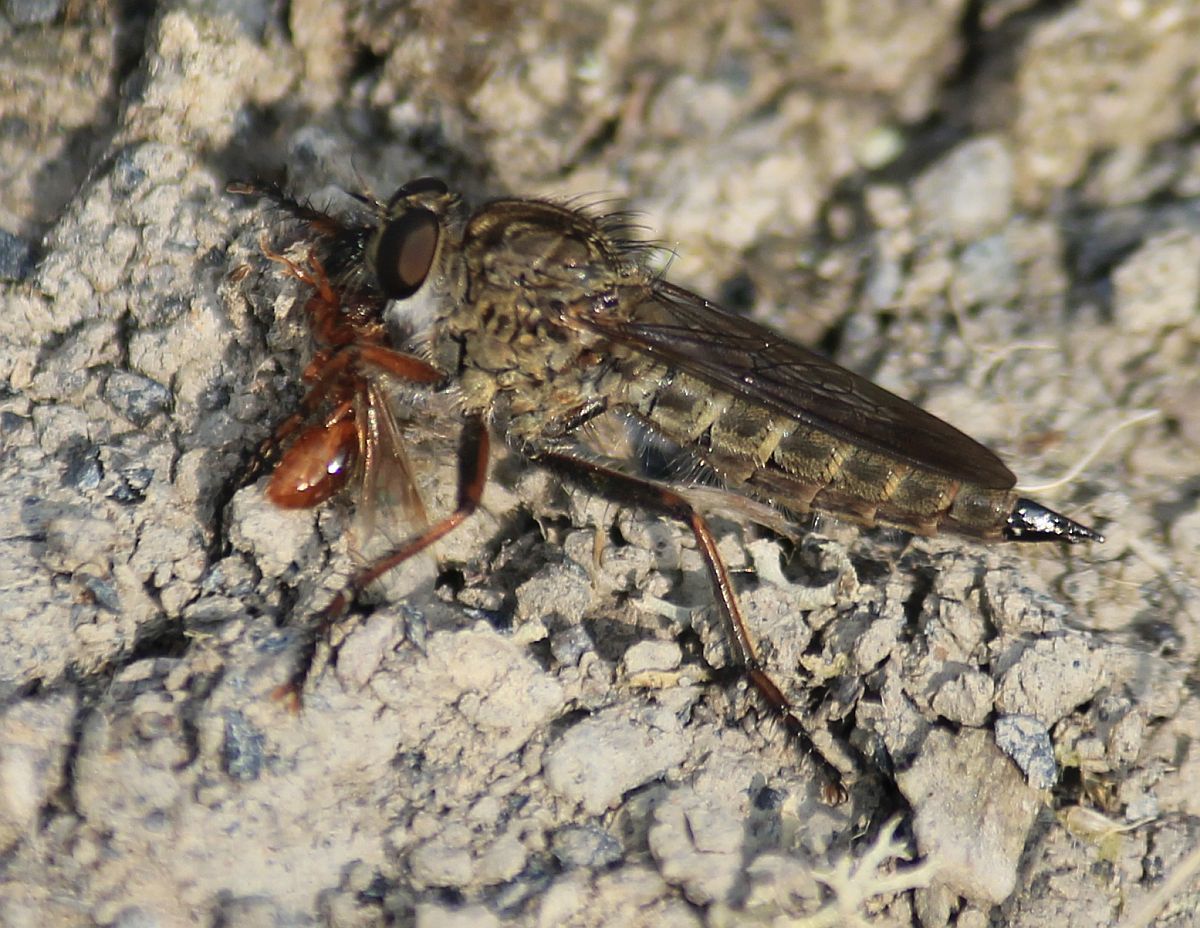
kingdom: Animalia
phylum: Arthropoda
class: Insecta
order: Diptera
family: Asilidae
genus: Machimus
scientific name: Machimus atricapillus
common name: Kite-tailed robberfly
